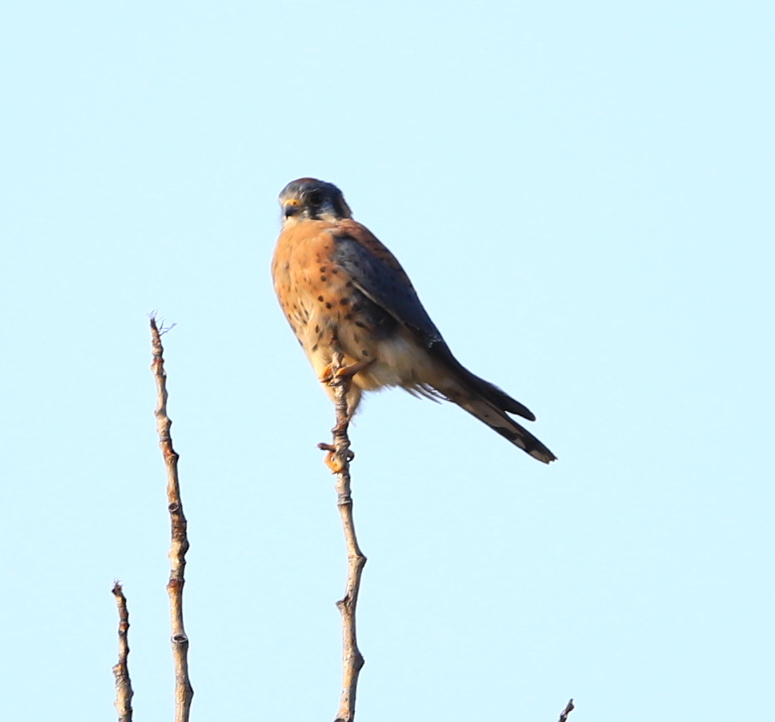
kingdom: Animalia
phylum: Chordata
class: Aves
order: Falconiformes
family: Falconidae
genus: Falco
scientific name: Falco sparverius
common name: American kestrel
